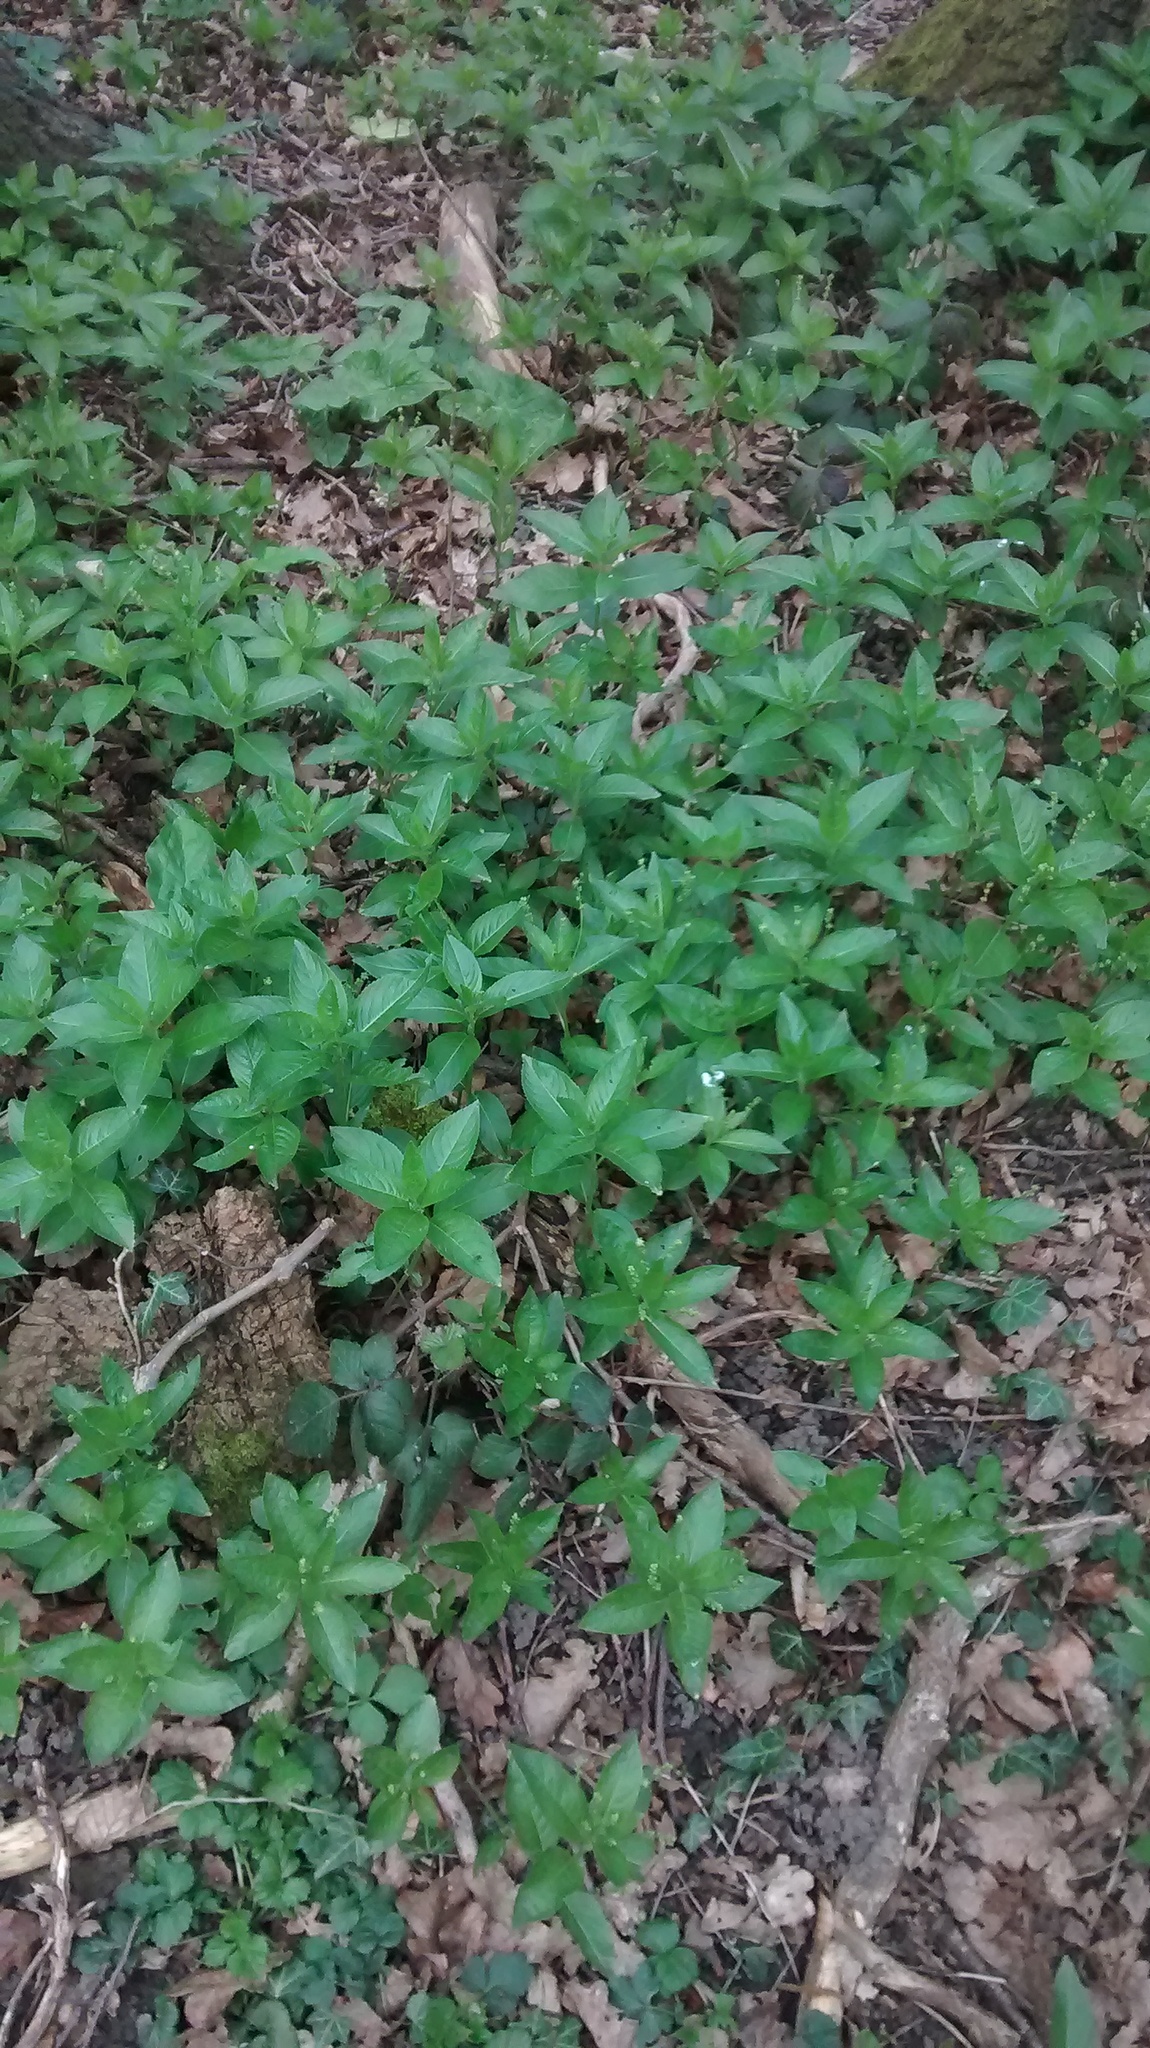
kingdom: Plantae
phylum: Tracheophyta
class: Magnoliopsida
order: Malpighiales
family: Euphorbiaceae
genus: Mercurialis
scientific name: Mercurialis perennis
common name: Dog mercury
